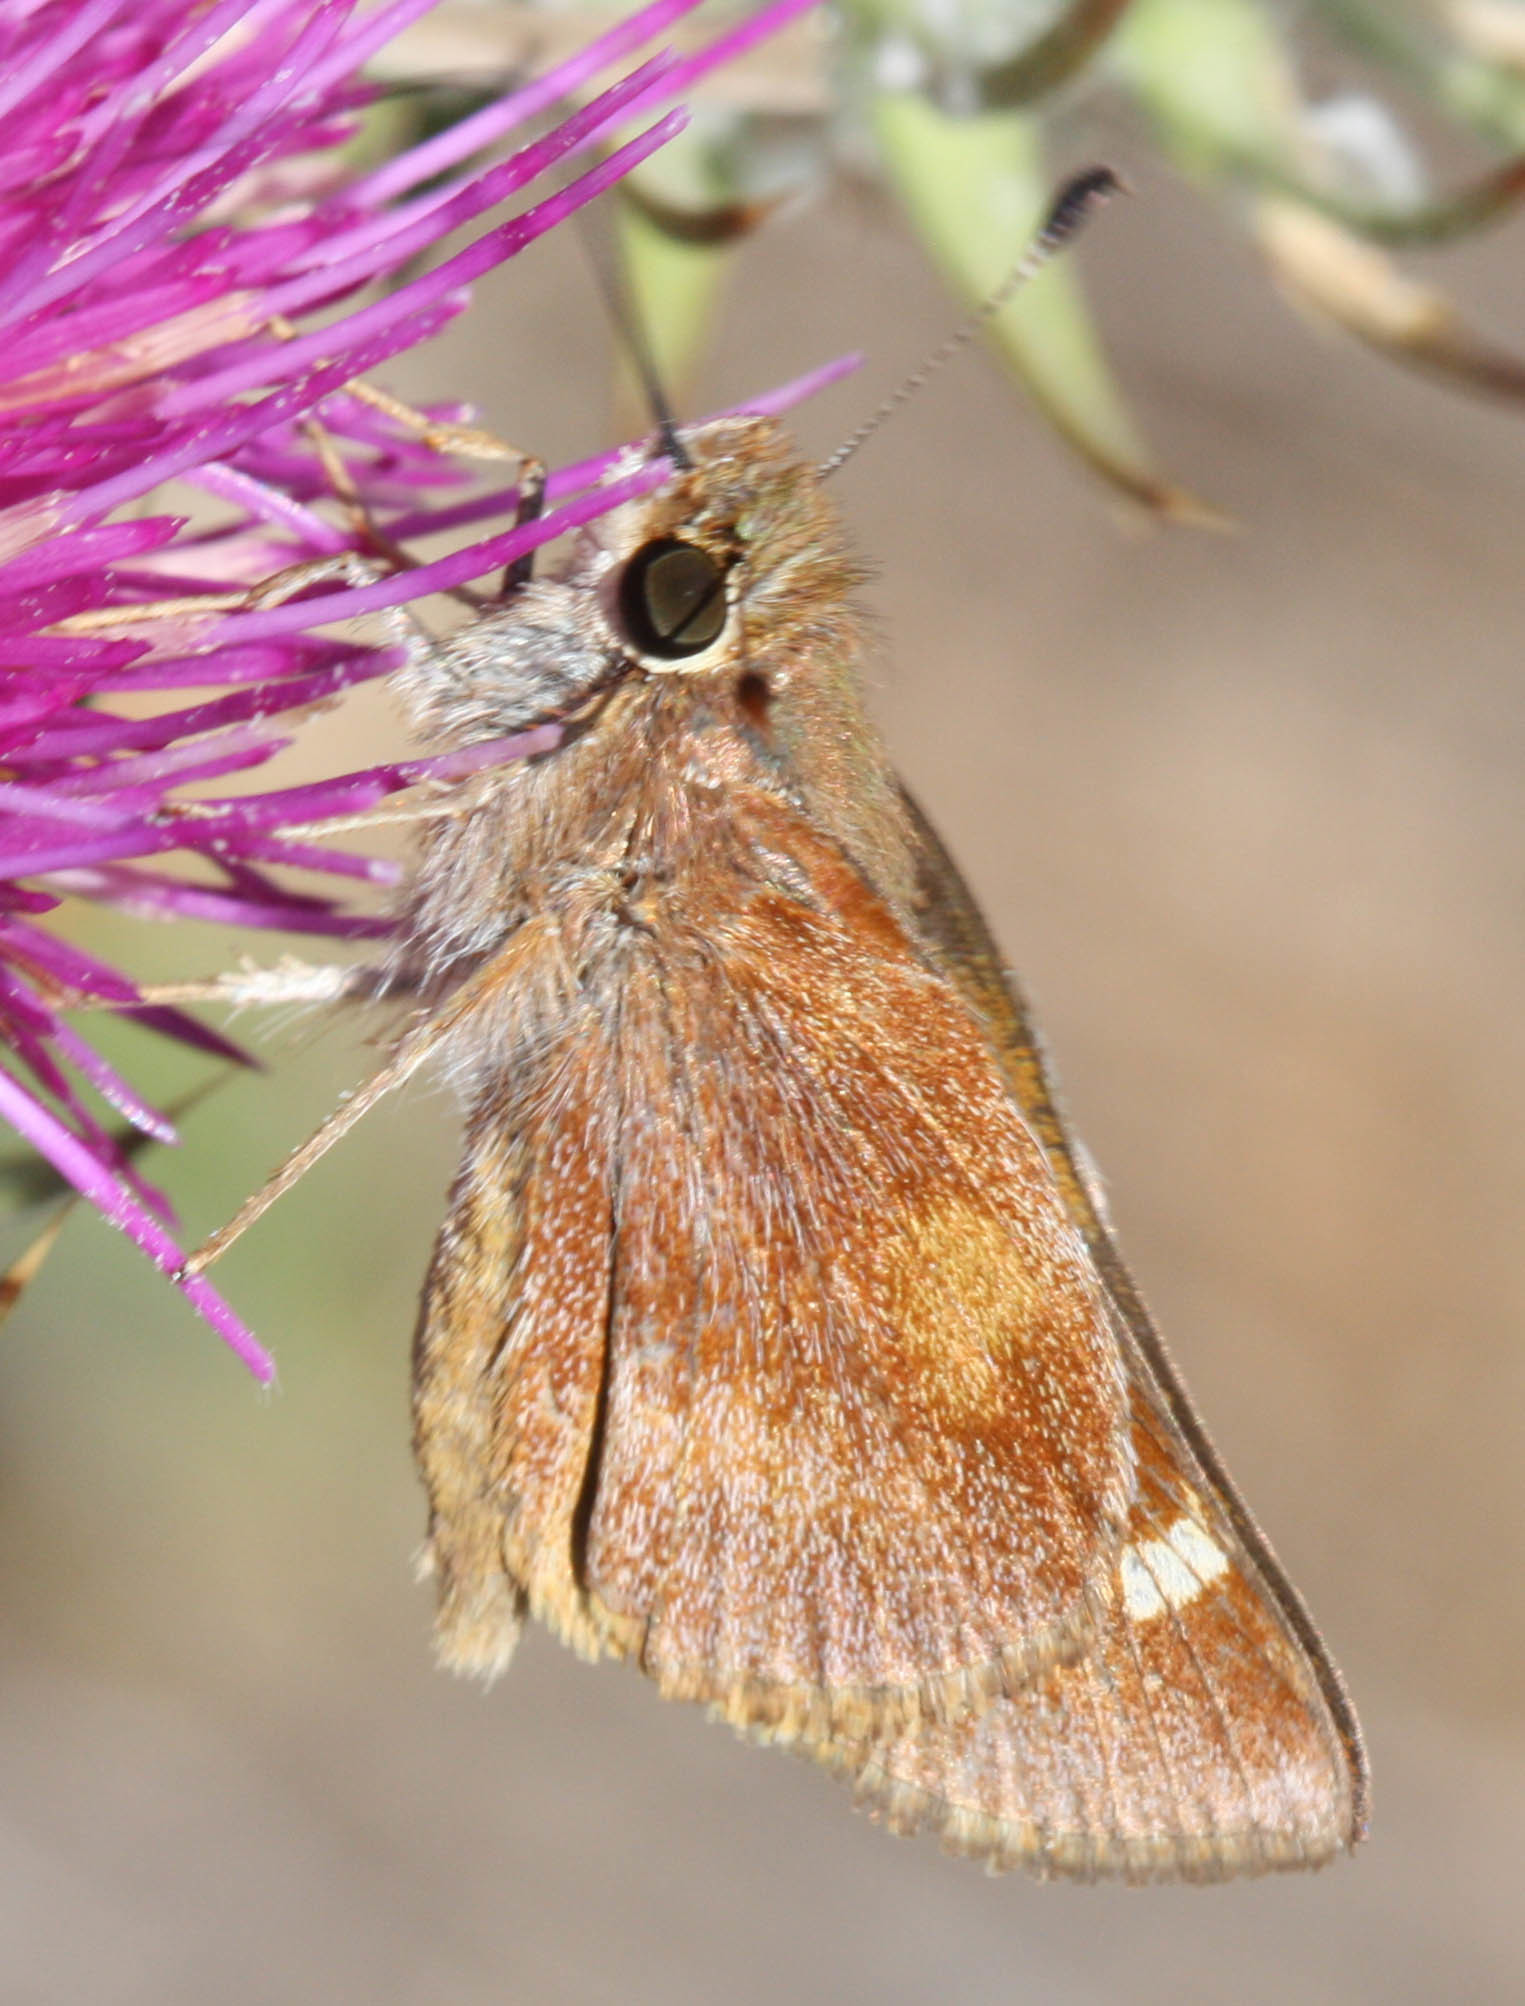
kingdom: Animalia
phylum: Arthropoda
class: Insecta
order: Lepidoptera
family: Hesperiidae
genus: Lon
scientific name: Lon melane
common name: Umber skipper
